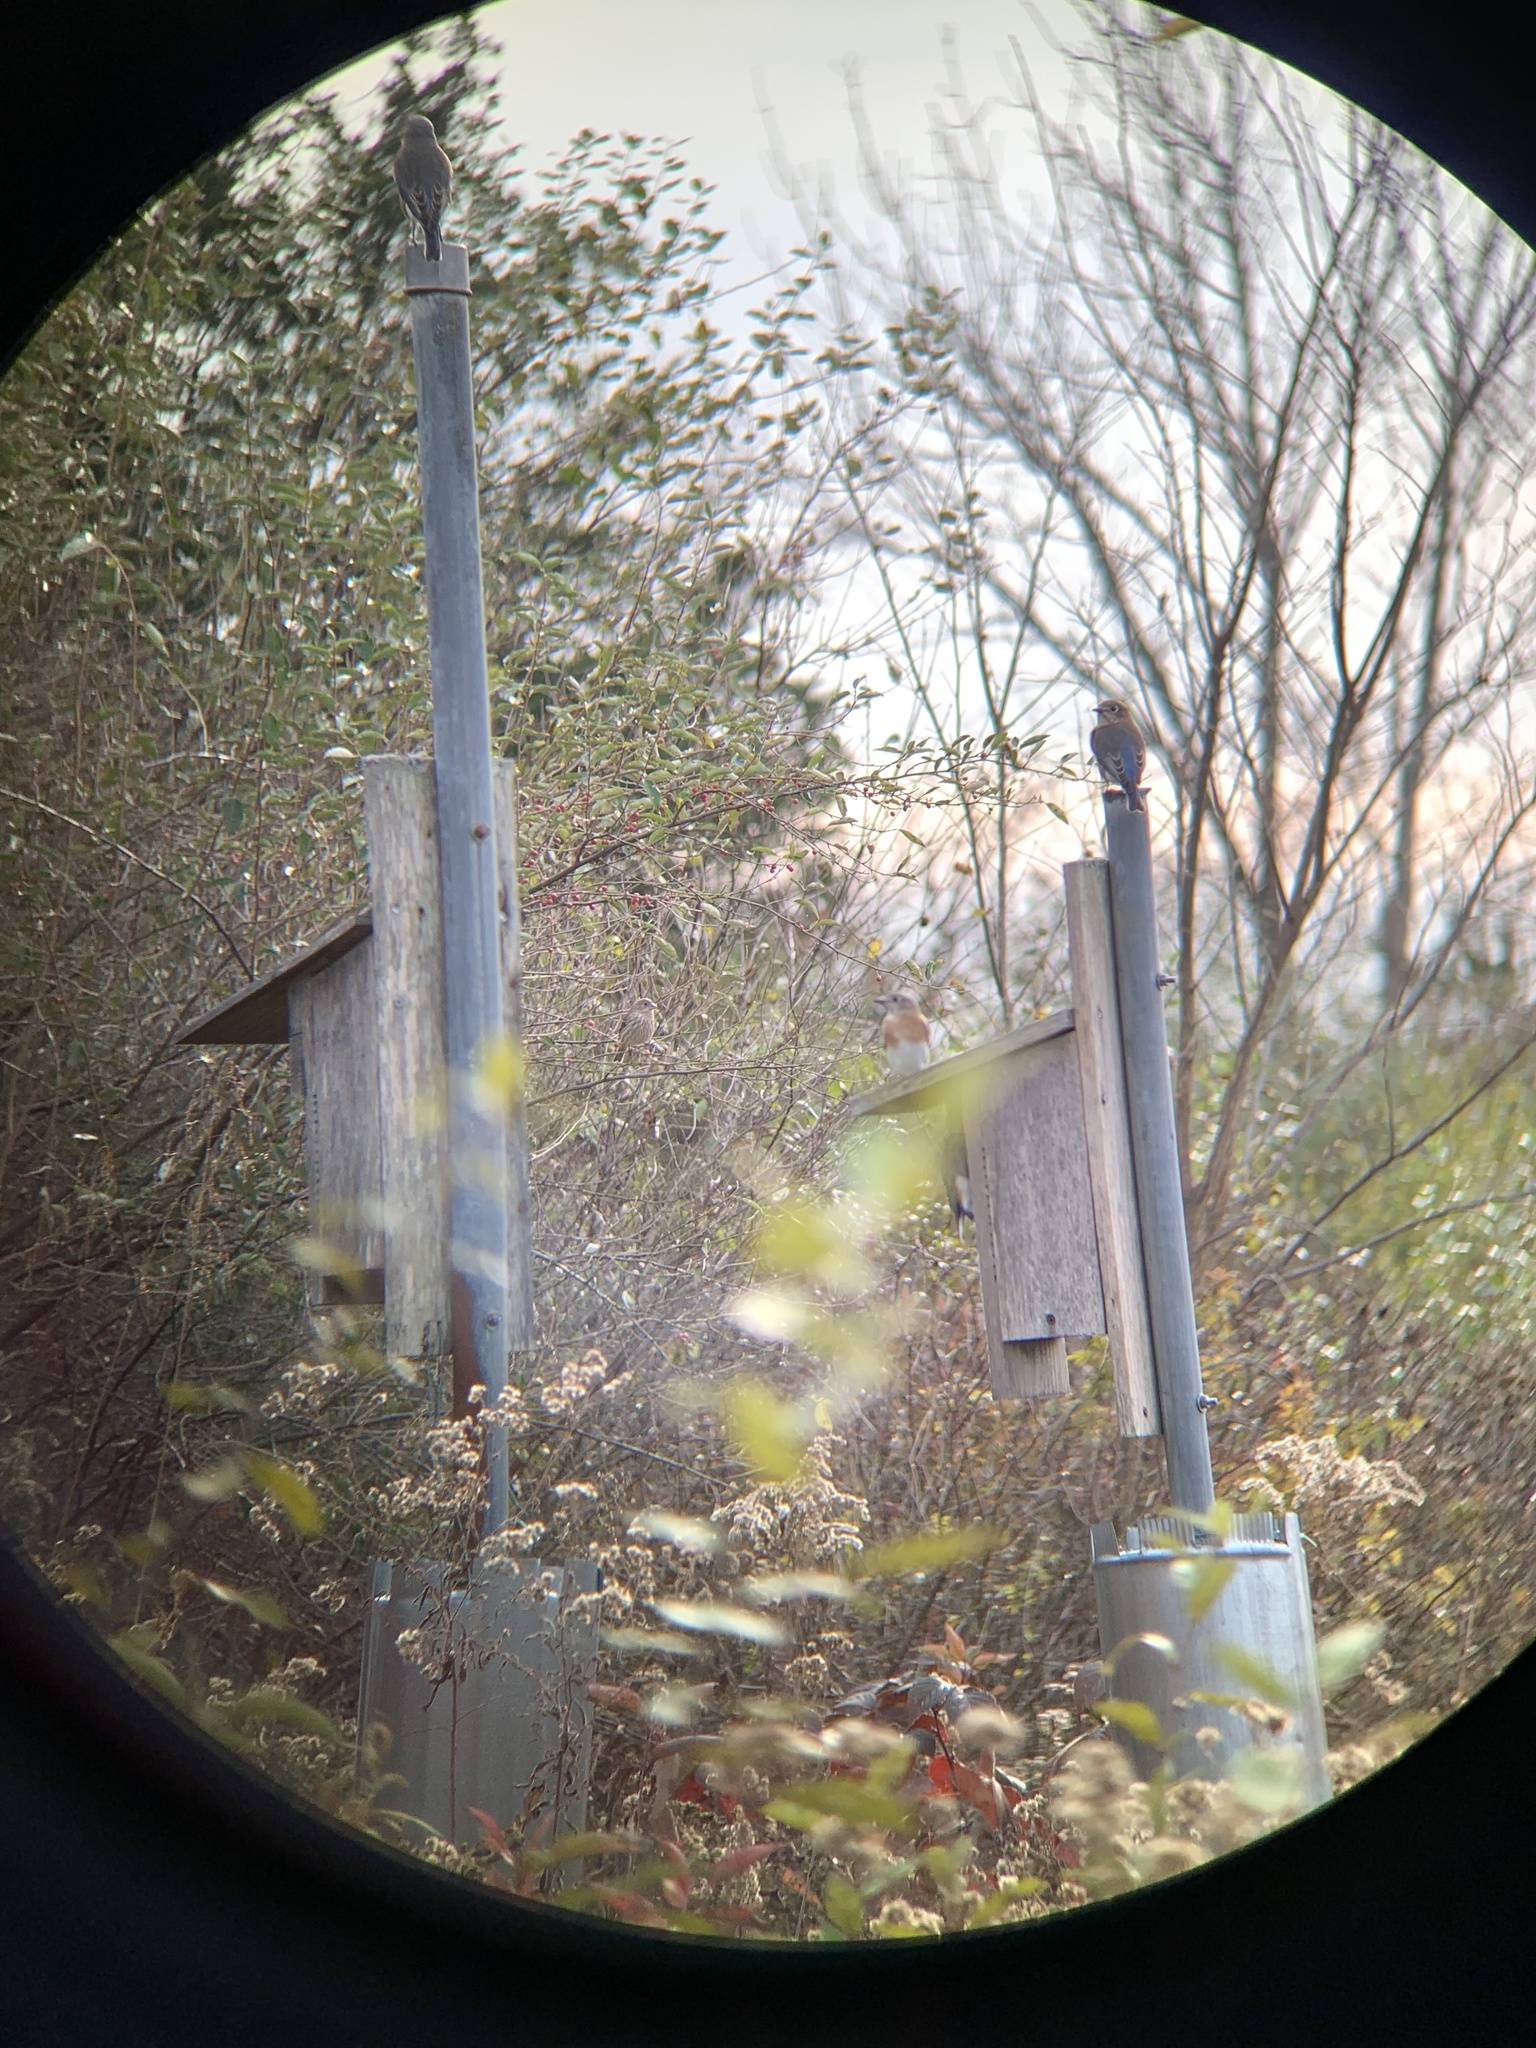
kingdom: Animalia
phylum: Chordata
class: Aves
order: Passeriformes
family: Turdidae
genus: Sialia
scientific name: Sialia sialis
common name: Eastern bluebird
